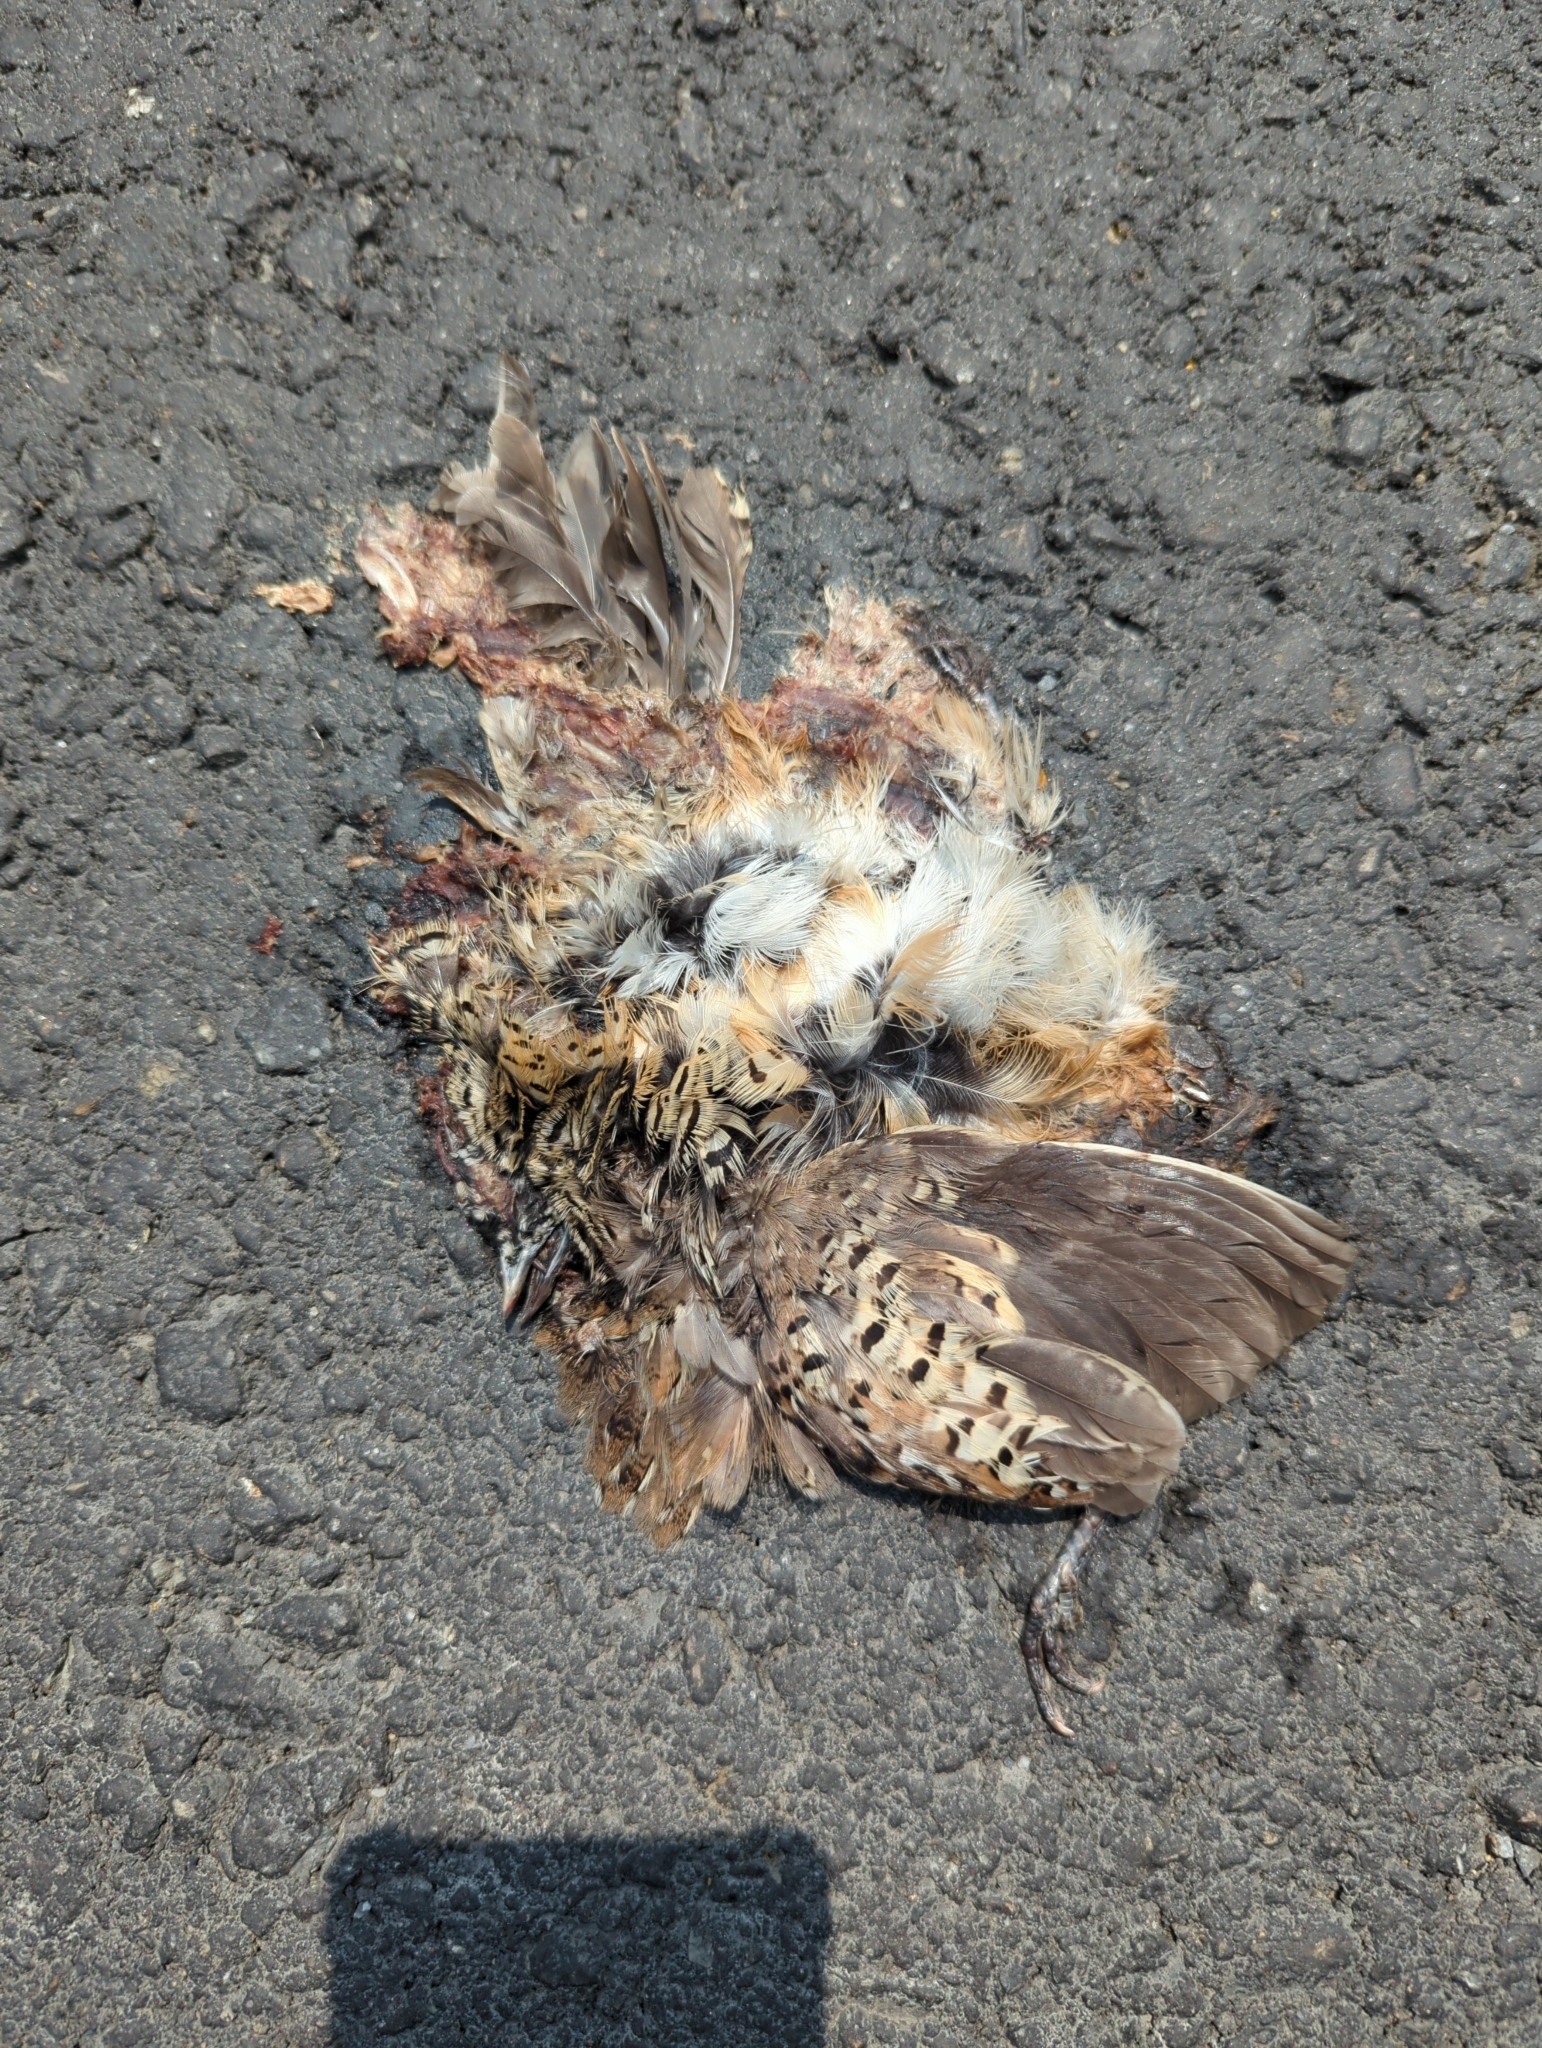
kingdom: Animalia
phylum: Chordata
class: Aves
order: Charadriiformes
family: Turnicidae
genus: Turnix
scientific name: Turnix suscitator
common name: Barred buttonquail
